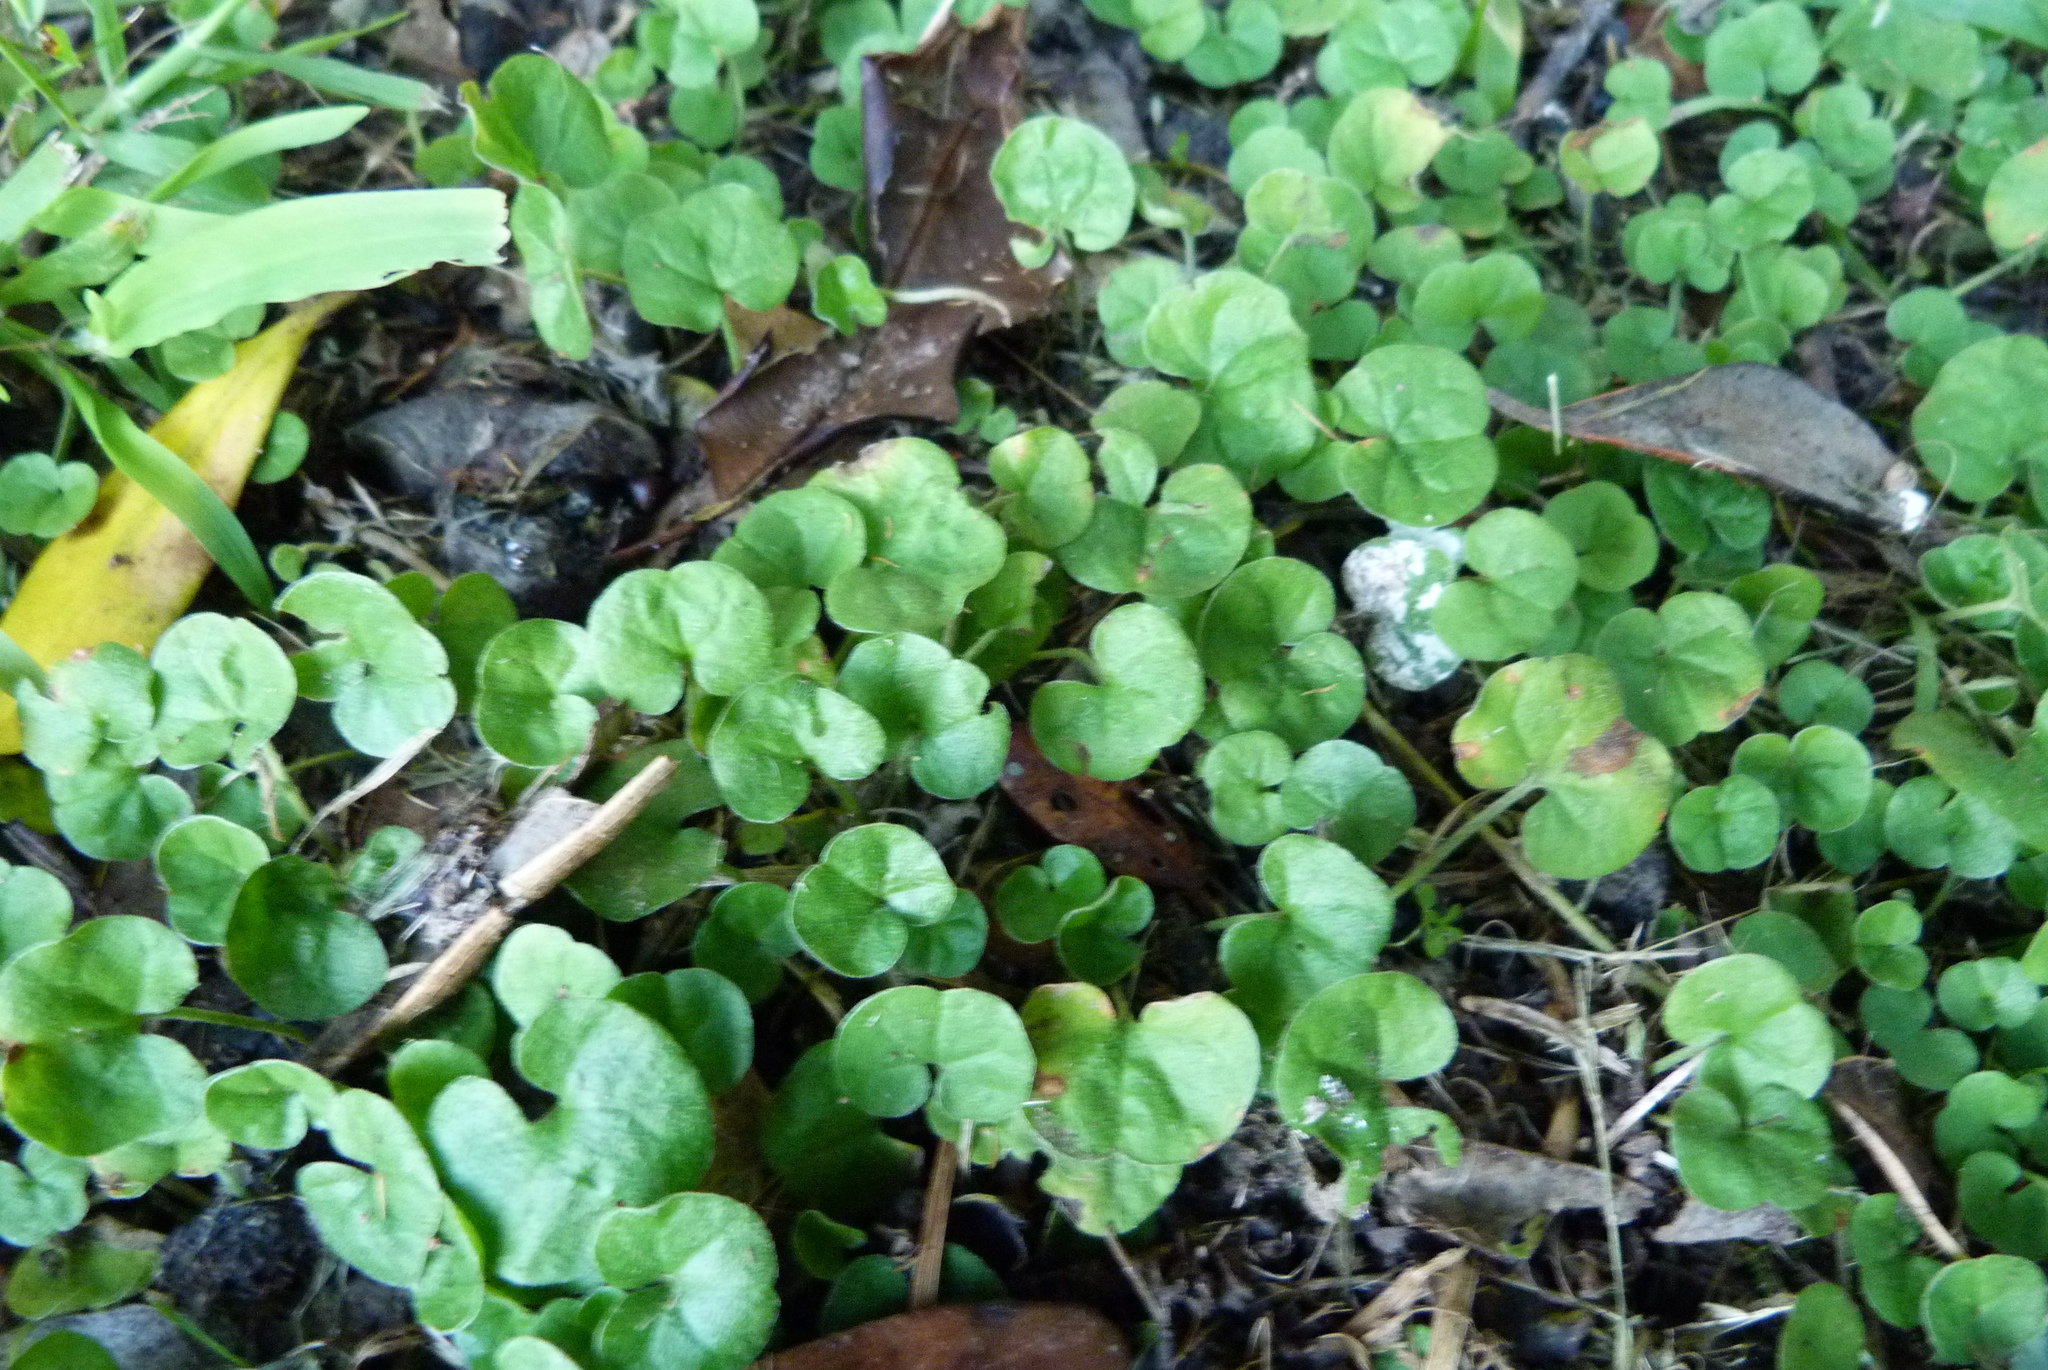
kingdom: Plantae
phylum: Tracheophyta
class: Magnoliopsida
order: Solanales
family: Convolvulaceae
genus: Dichondra
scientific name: Dichondra repens
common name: Kidneyweed
